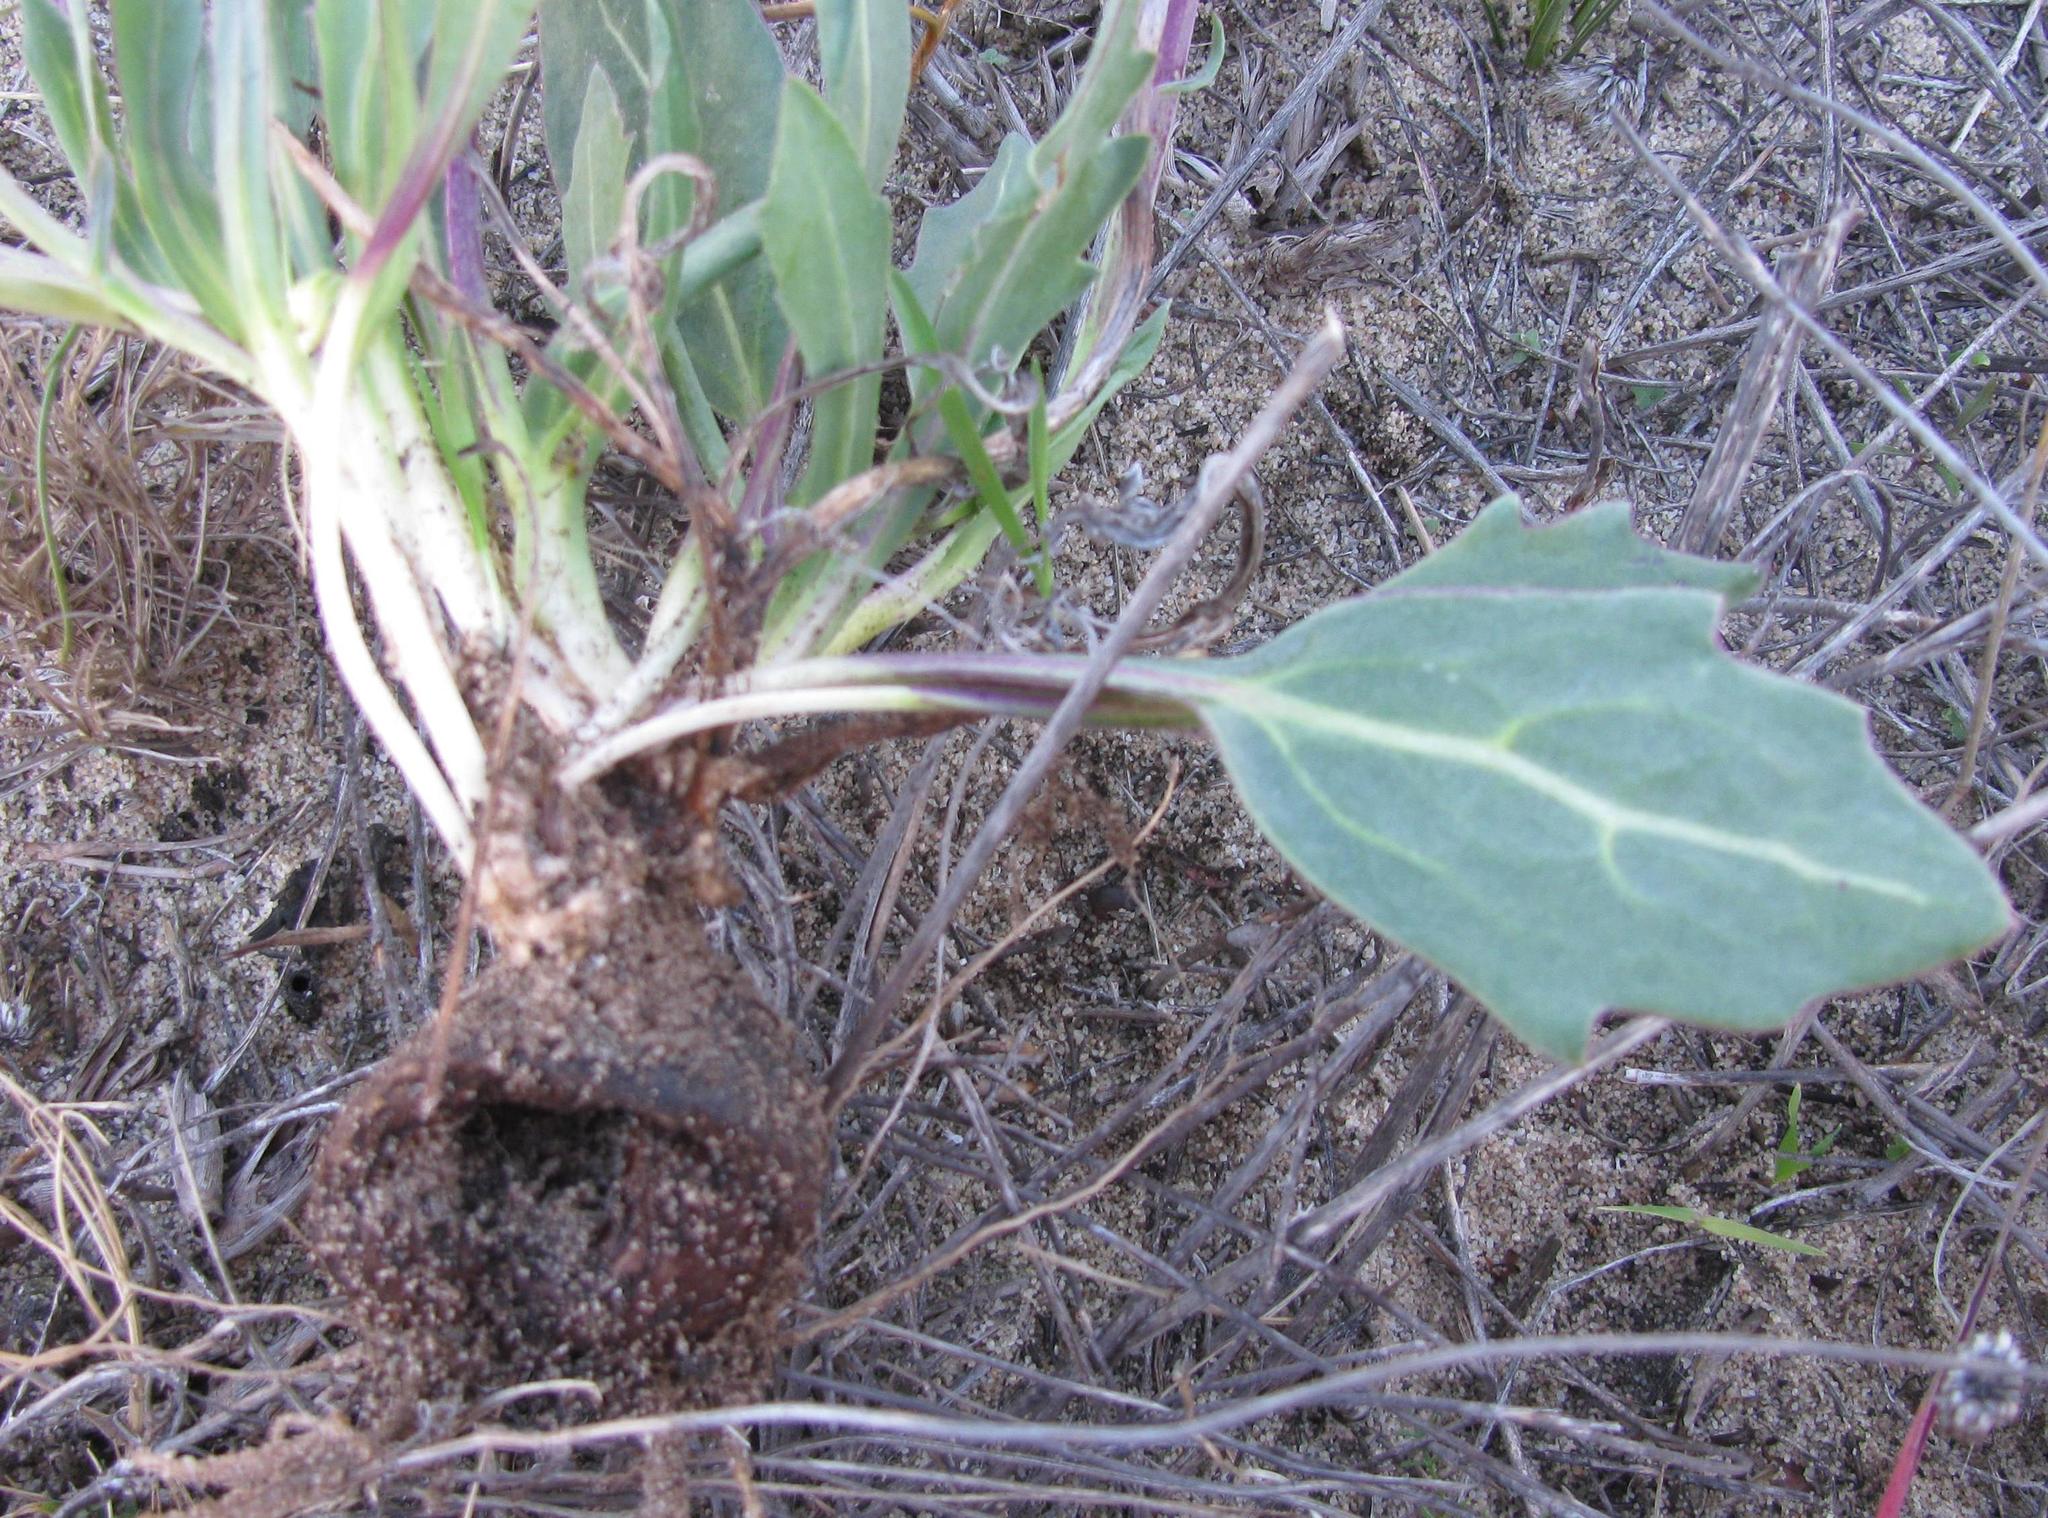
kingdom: Plantae
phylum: Tracheophyta
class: Magnoliopsida
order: Asterales
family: Asteraceae
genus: Othonna
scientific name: Othonna bulbosa
